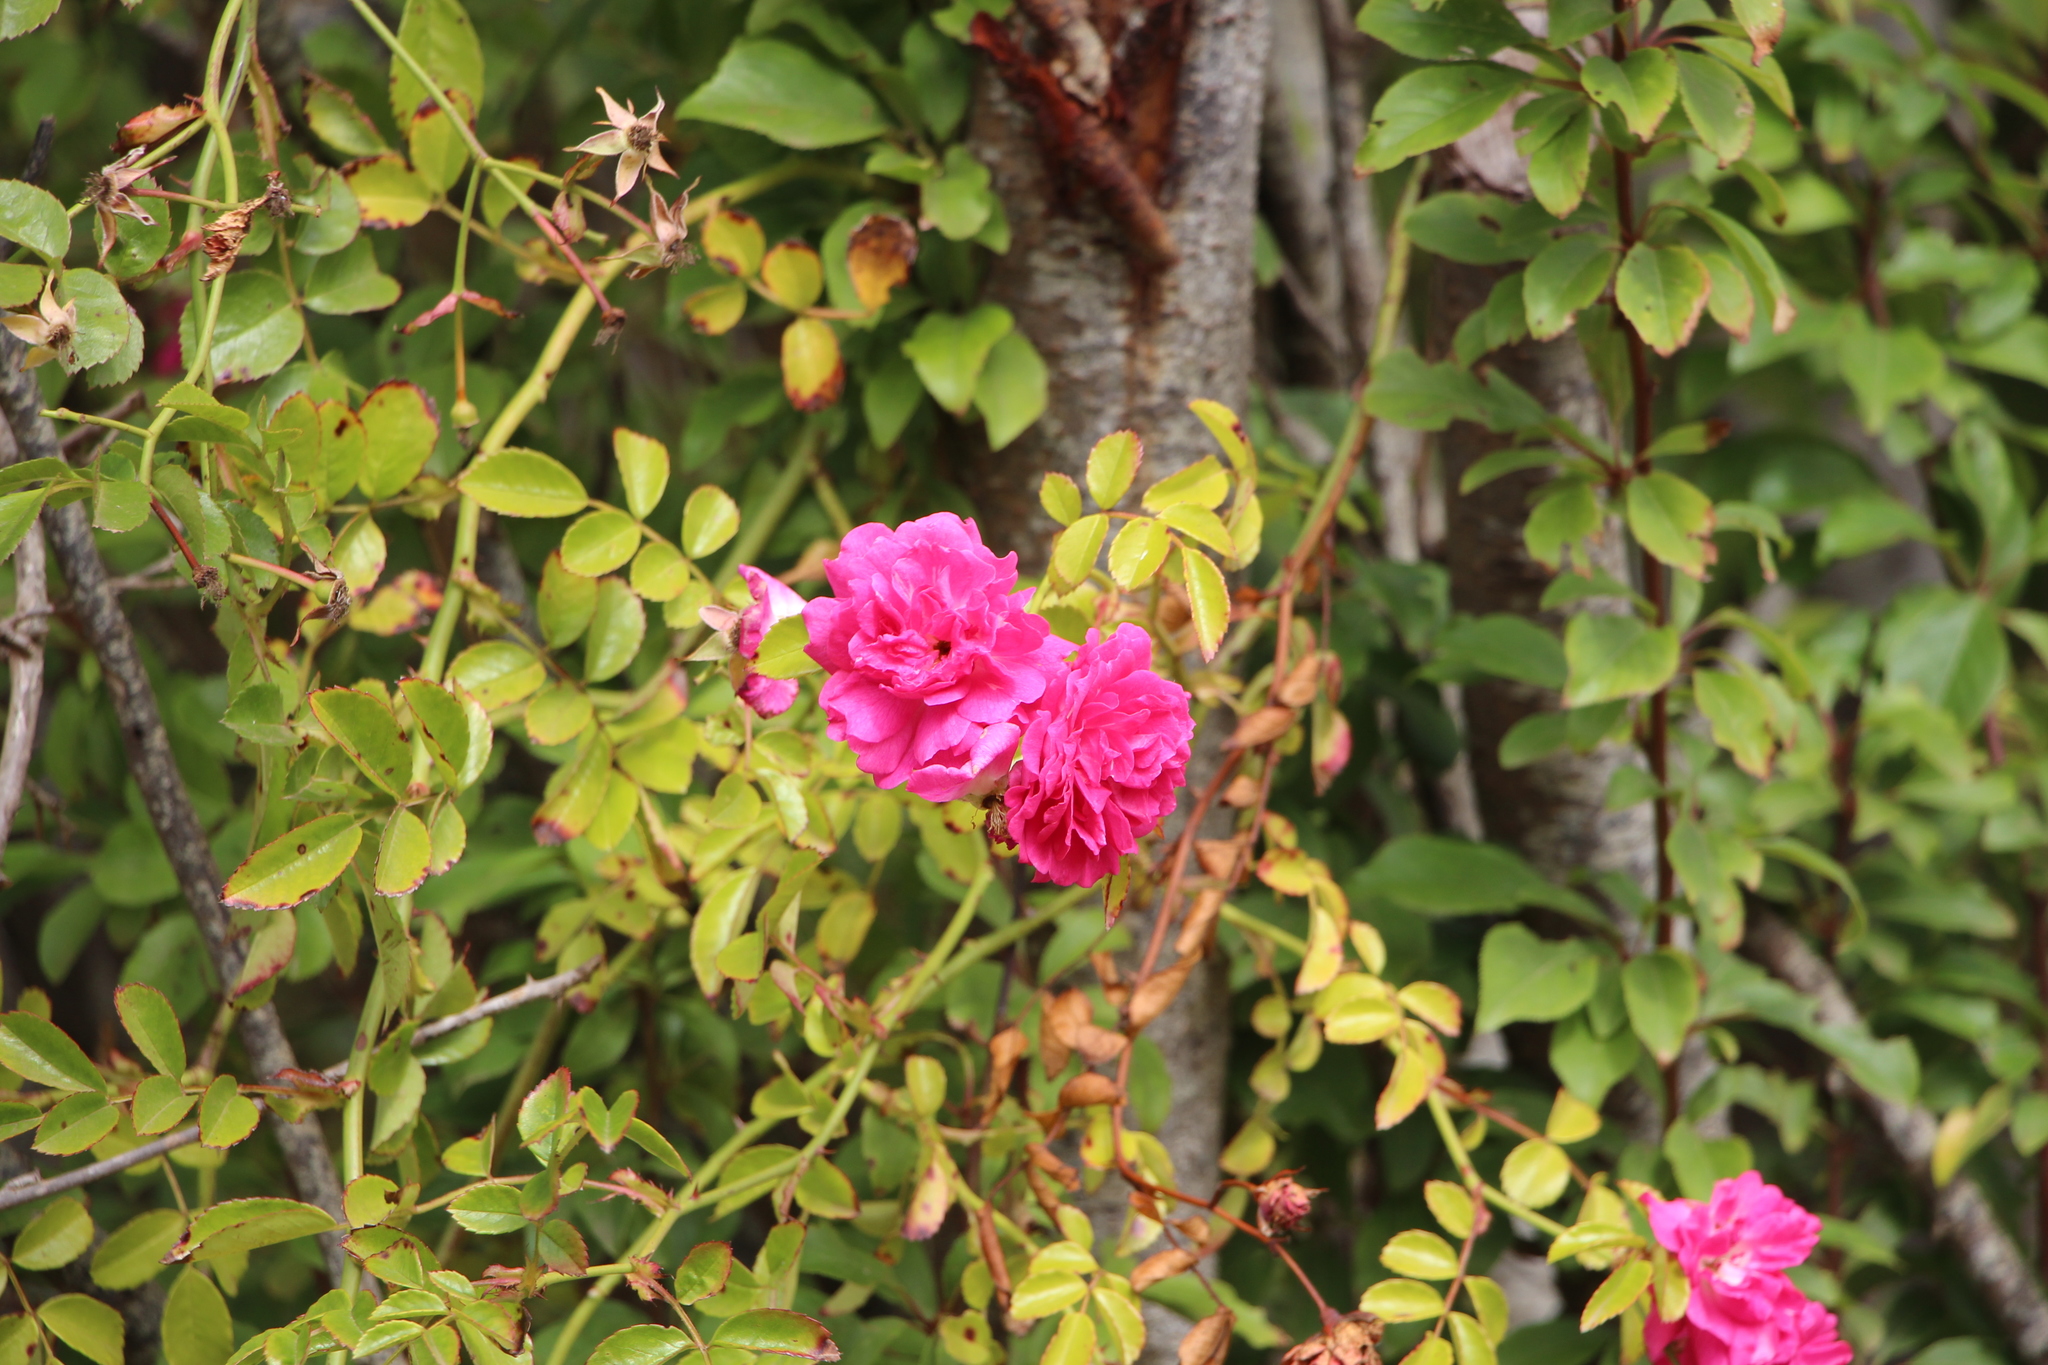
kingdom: Plantae
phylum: Tracheophyta
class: Magnoliopsida
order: Rosales
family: Rosaceae
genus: Rosa
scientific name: Rosa
